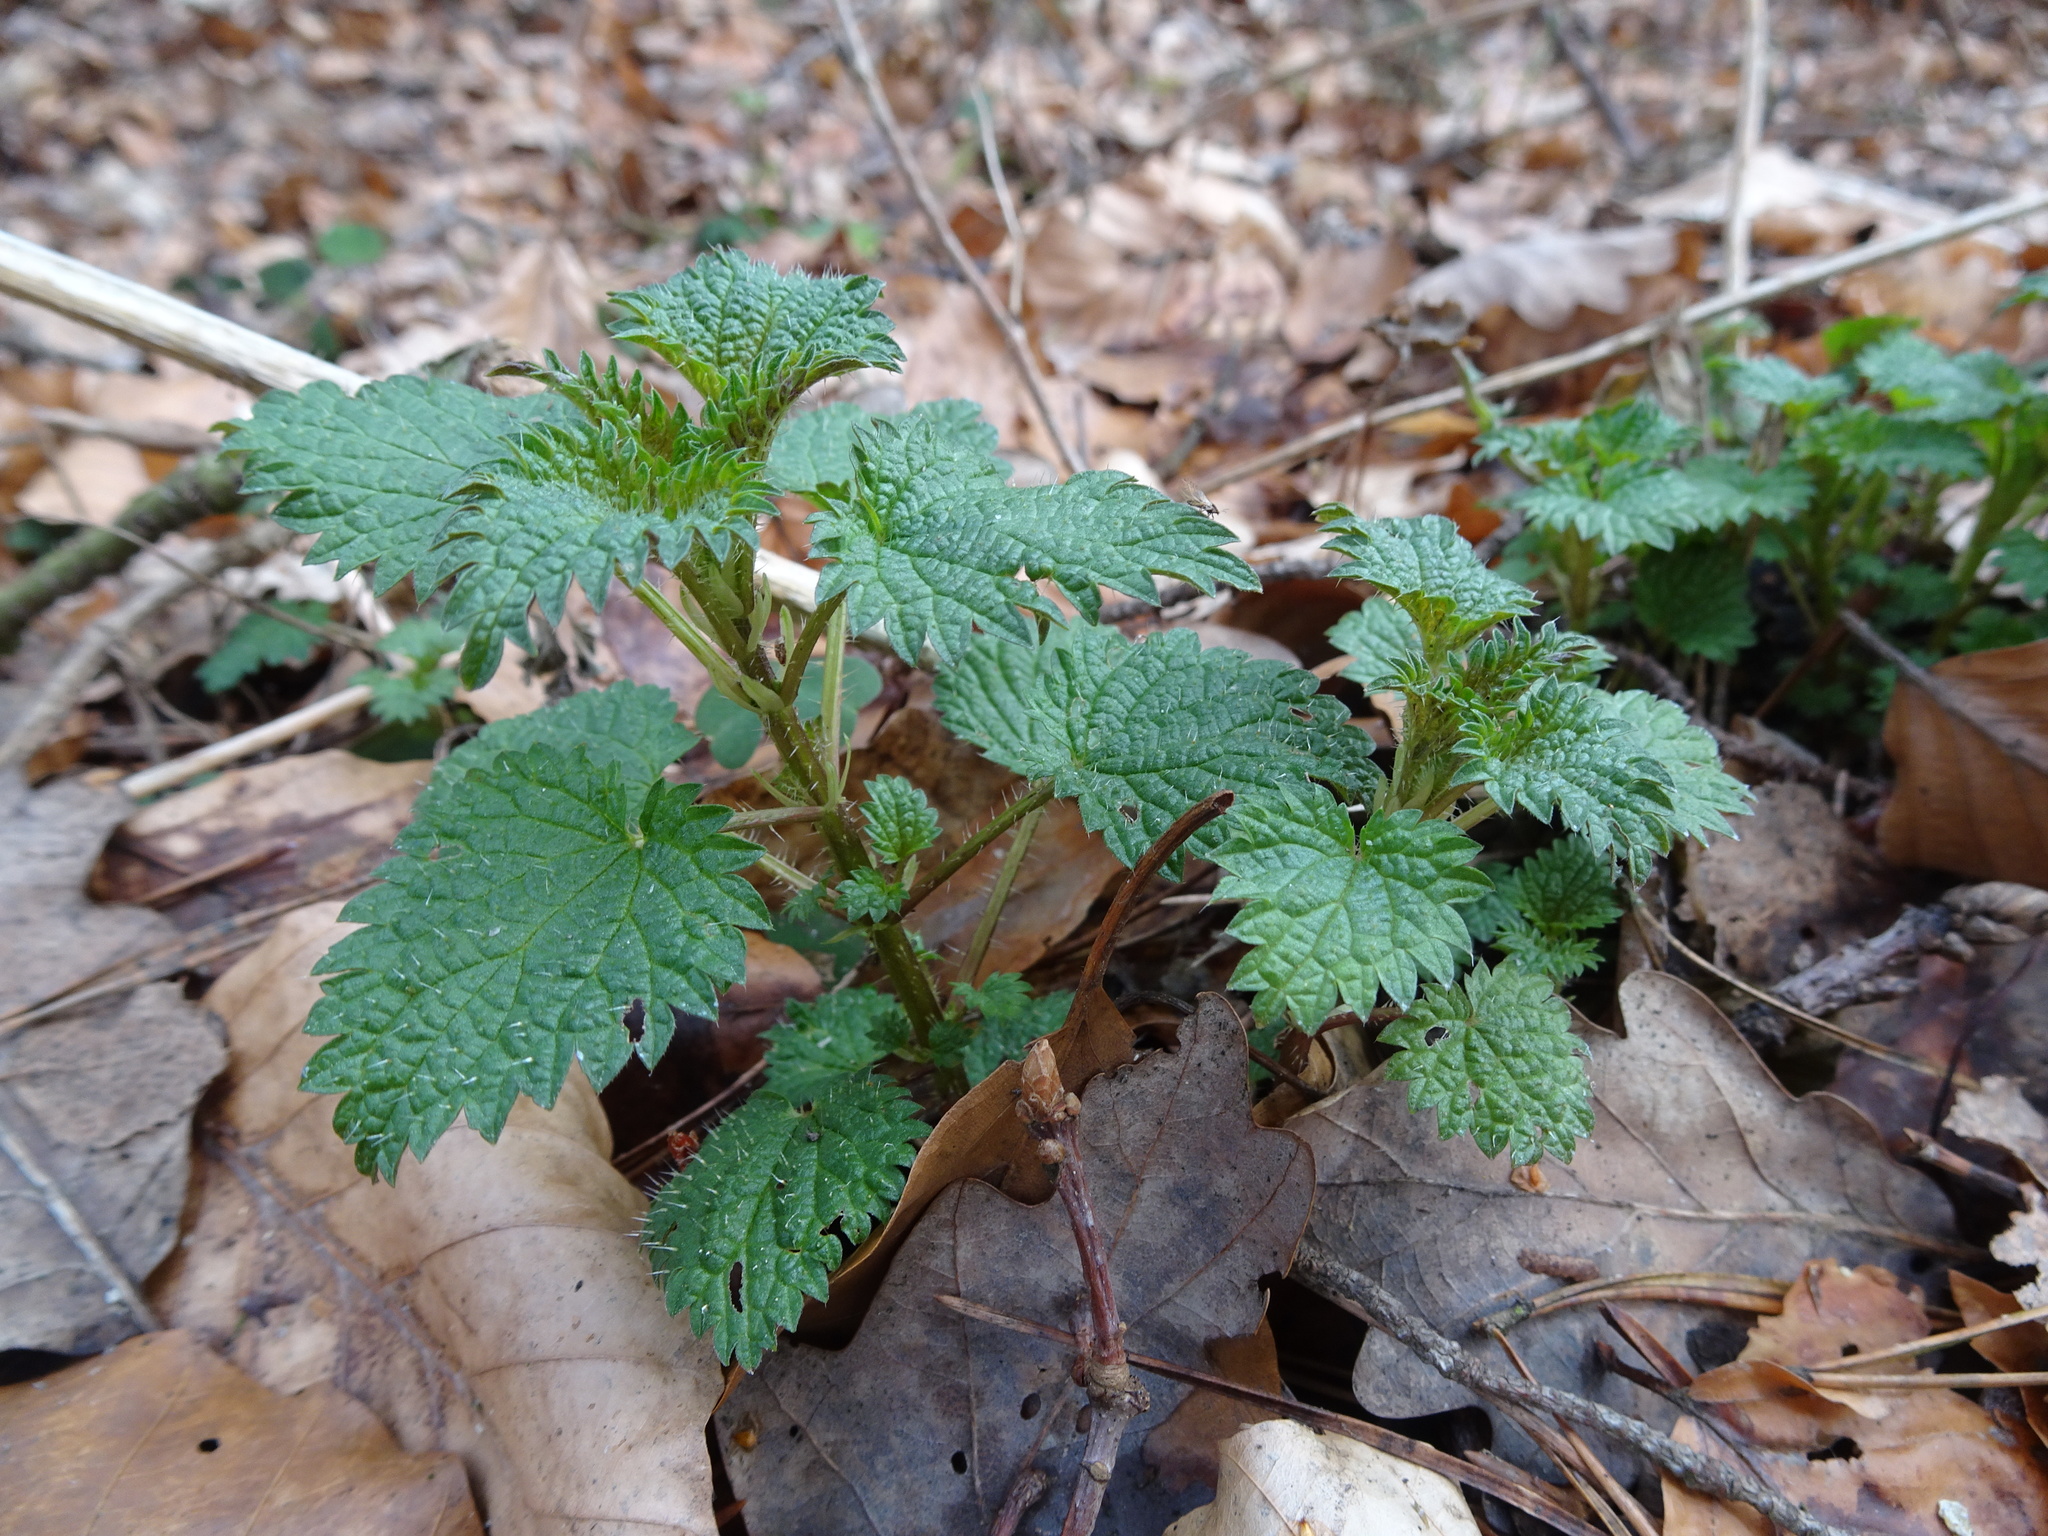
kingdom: Plantae
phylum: Tracheophyta
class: Magnoliopsida
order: Rosales
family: Urticaceae
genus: Urtica
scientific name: Urtica dioica
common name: Common nettle
